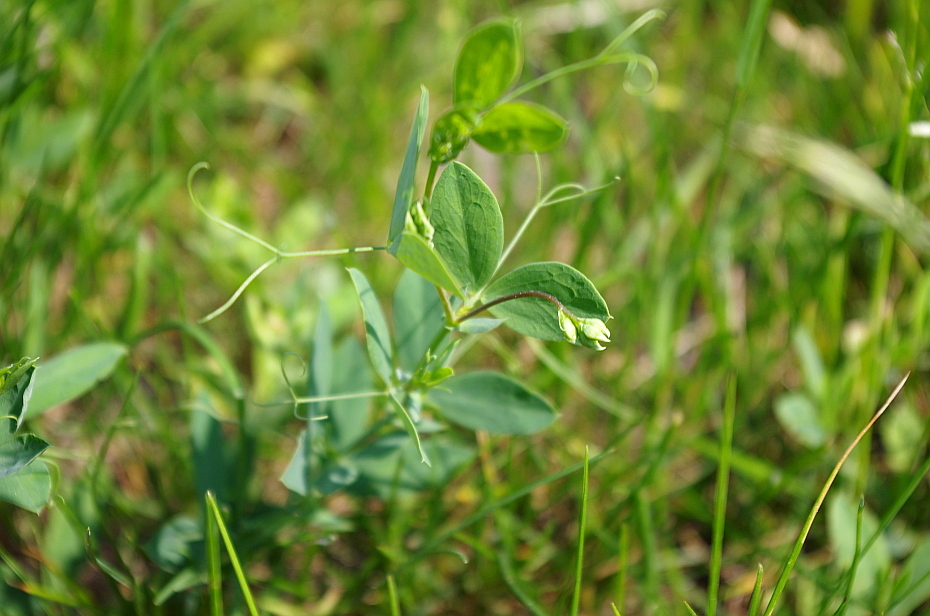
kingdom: Plantae
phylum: Tracheophyta
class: Magnoliopsida
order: Fabales
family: Fabaceae
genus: Lathyrus
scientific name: Lathyrus tuberosus
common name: Tuberous pea
